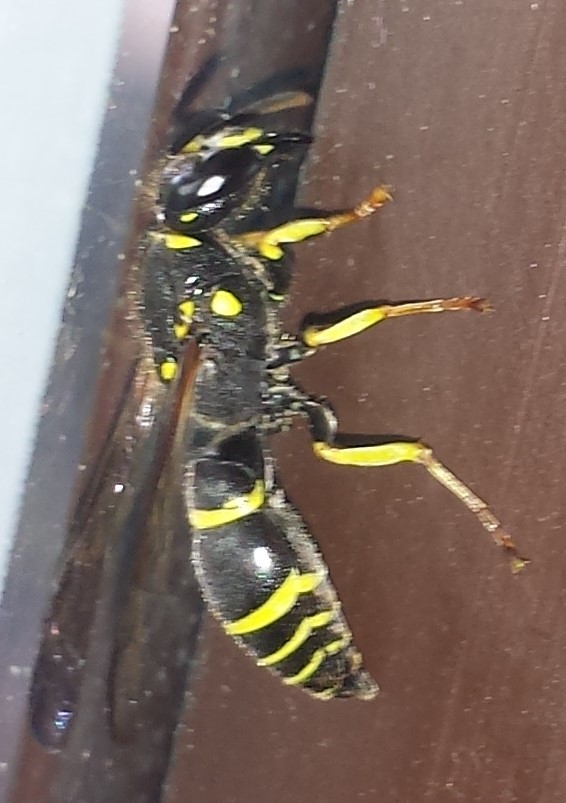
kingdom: Animalia
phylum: Arthropoda
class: Insecta
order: Hymenoptera
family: Vespidae
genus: Ancistrocerus
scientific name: Ancistrocerus
